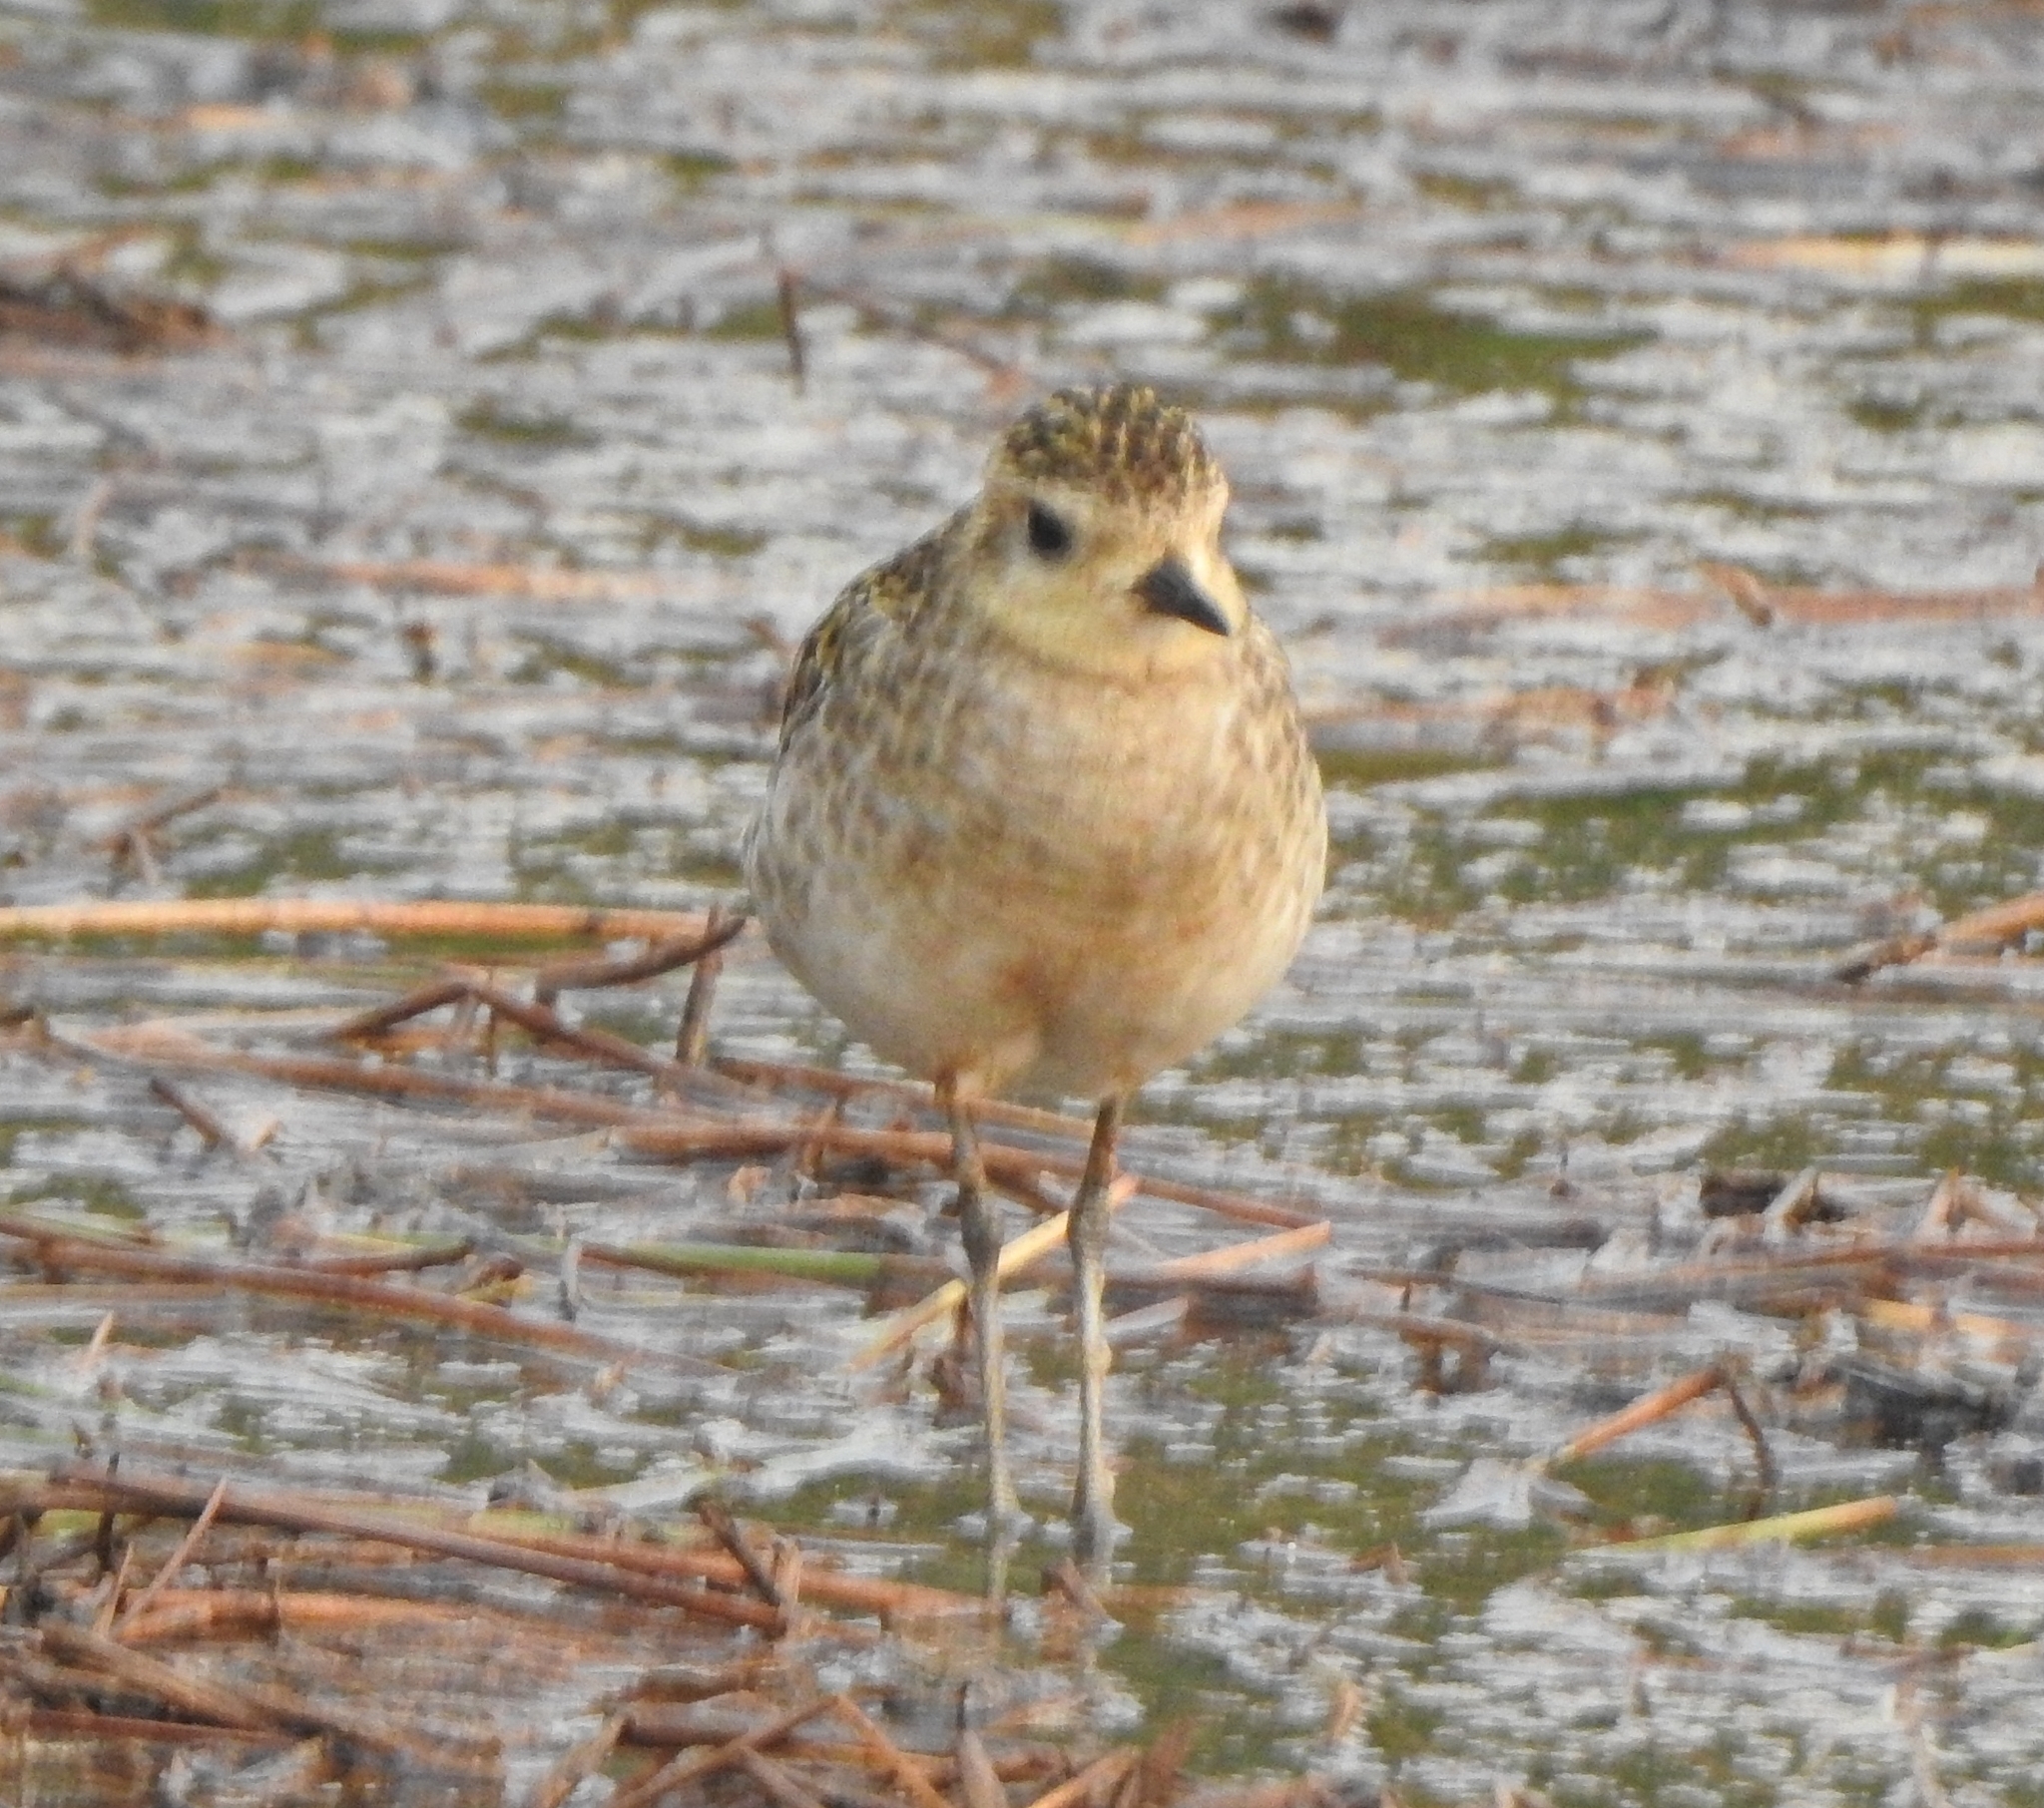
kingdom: Animalia
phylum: Chordata
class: Aves
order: Charadriiformes
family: Charadriidae
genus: Pluvialis
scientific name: Pluvialis fulva
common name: Pacific golden plover
